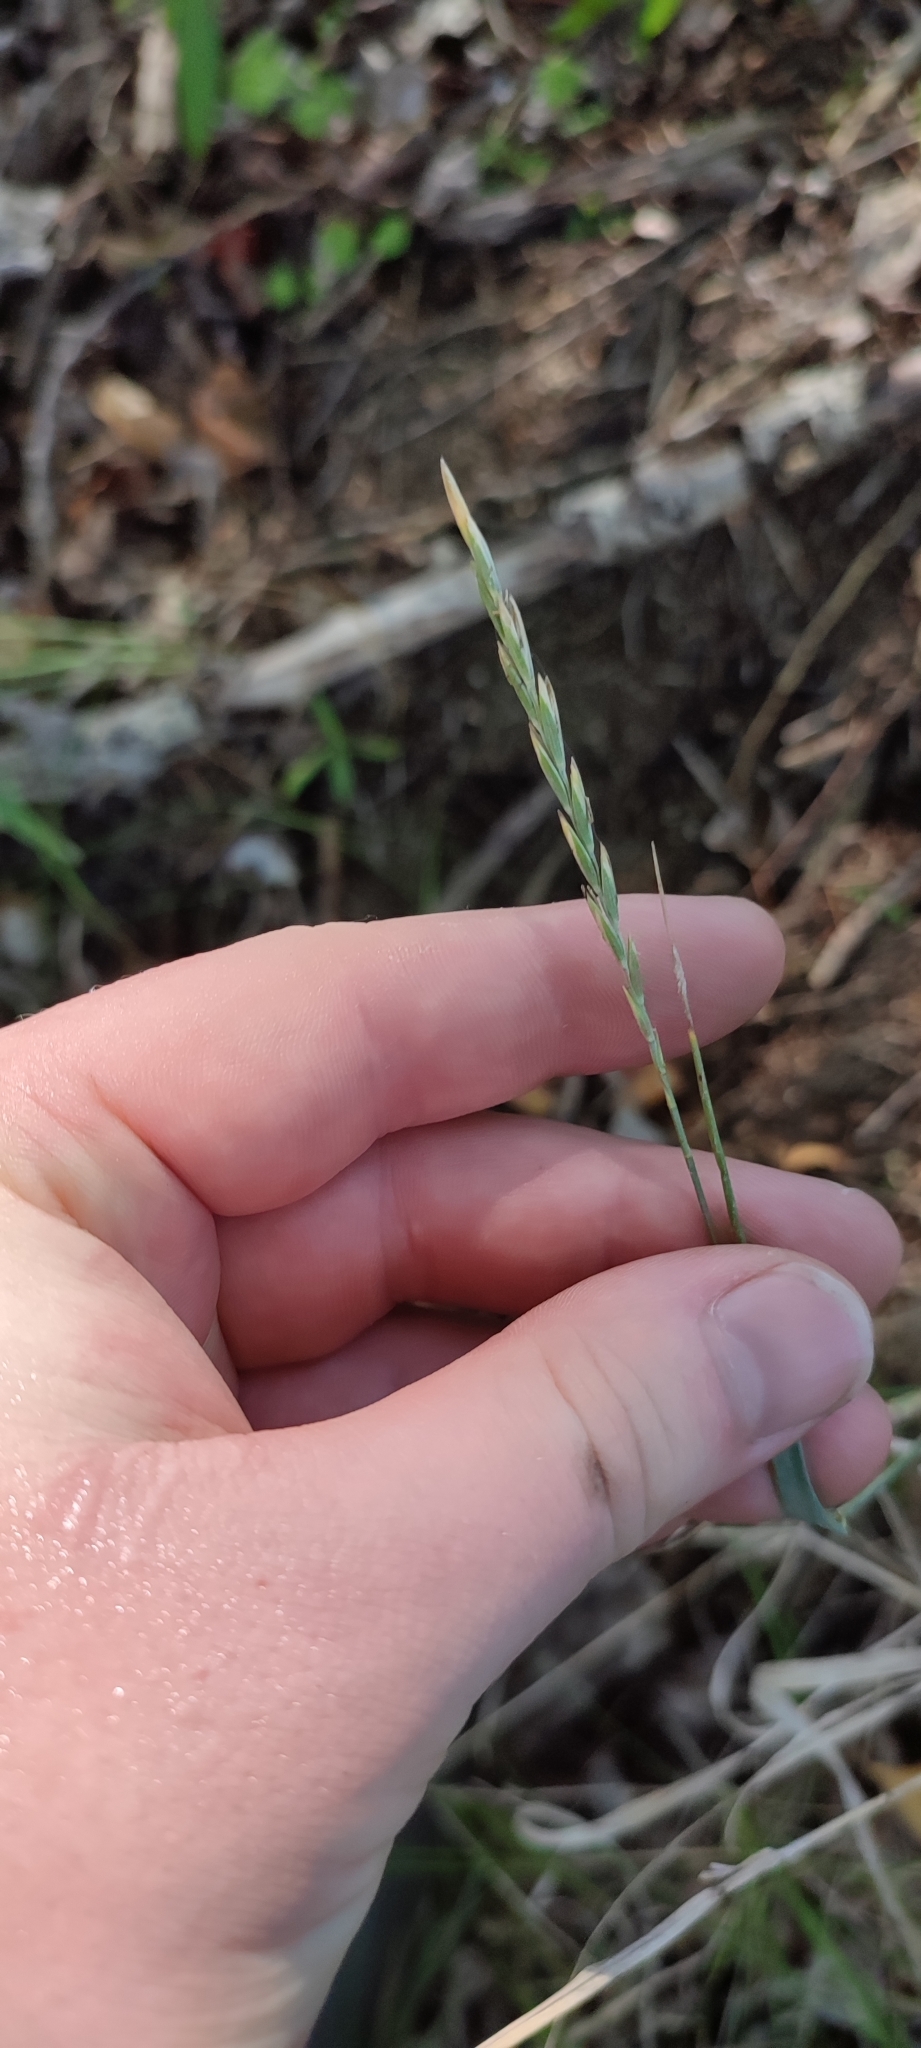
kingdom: Plantae
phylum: Tracheophyta
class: Liliopsida
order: Poales
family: Poaceae
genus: Elymus
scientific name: Elymus repens
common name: Quackgrass
